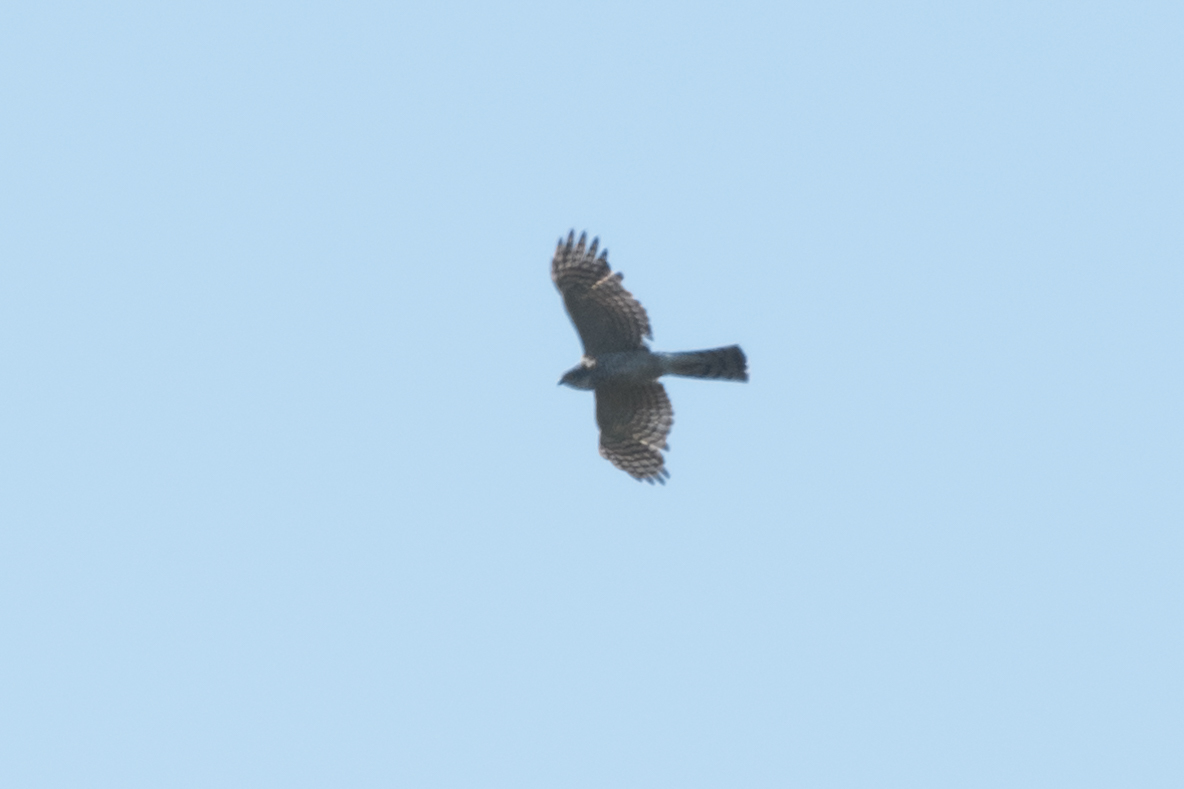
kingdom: Animalia
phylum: Chordata
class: Aves
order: Accipitriformes
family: Accipitridae
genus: Accipiter
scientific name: Accipiter nisus
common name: Eurasian sparrowhawk
